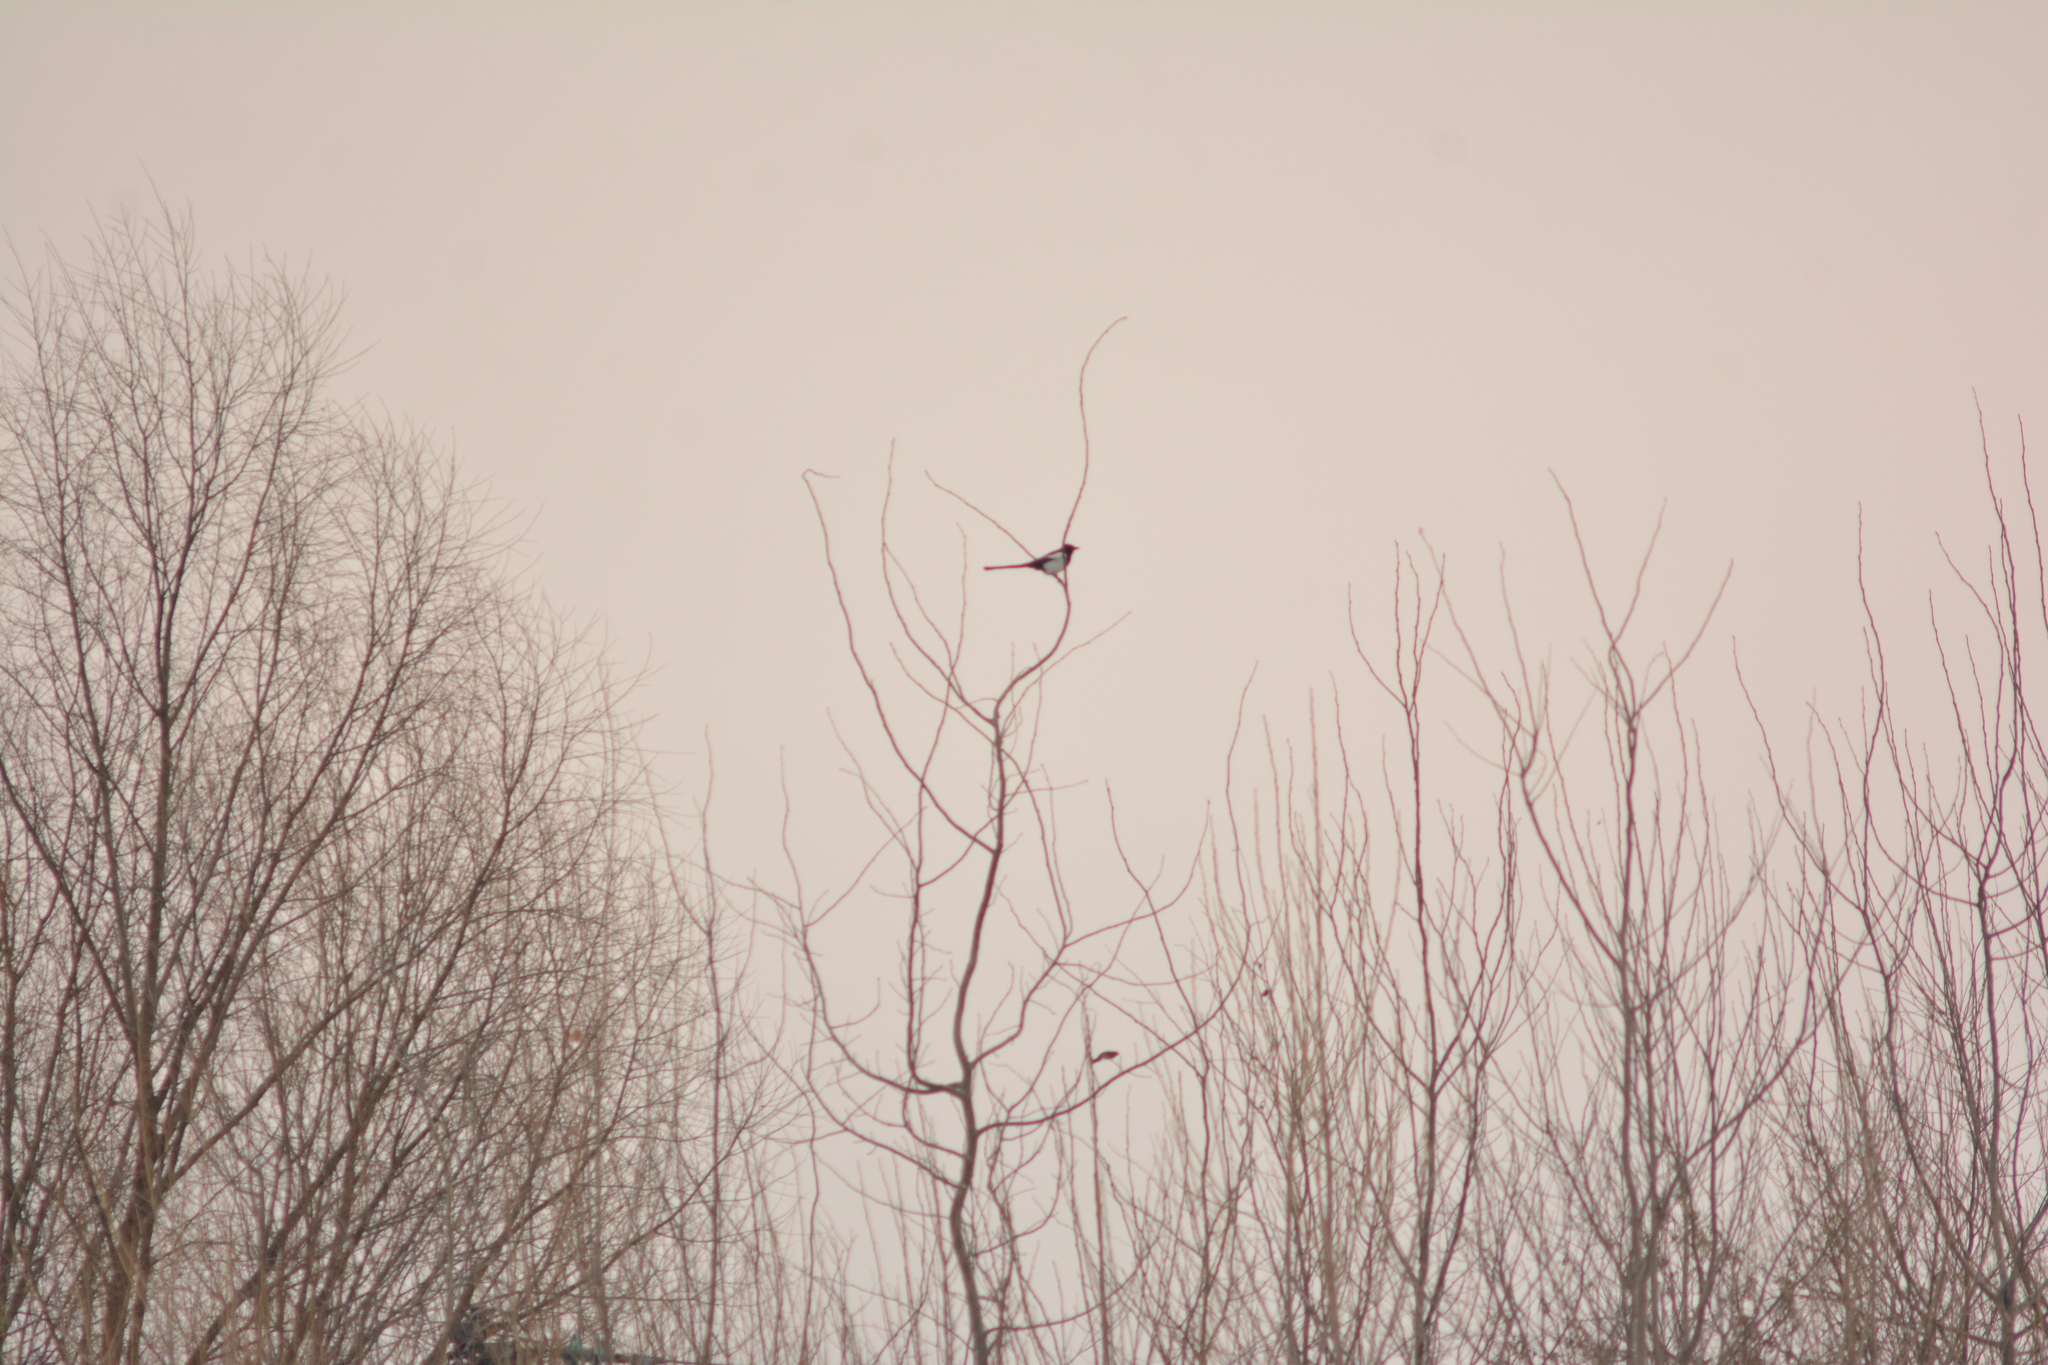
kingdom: Animalia
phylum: Chordata
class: Aves
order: Passeriformes
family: Corvidae
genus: Pica
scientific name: Pica pica
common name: Eurasian magpie
